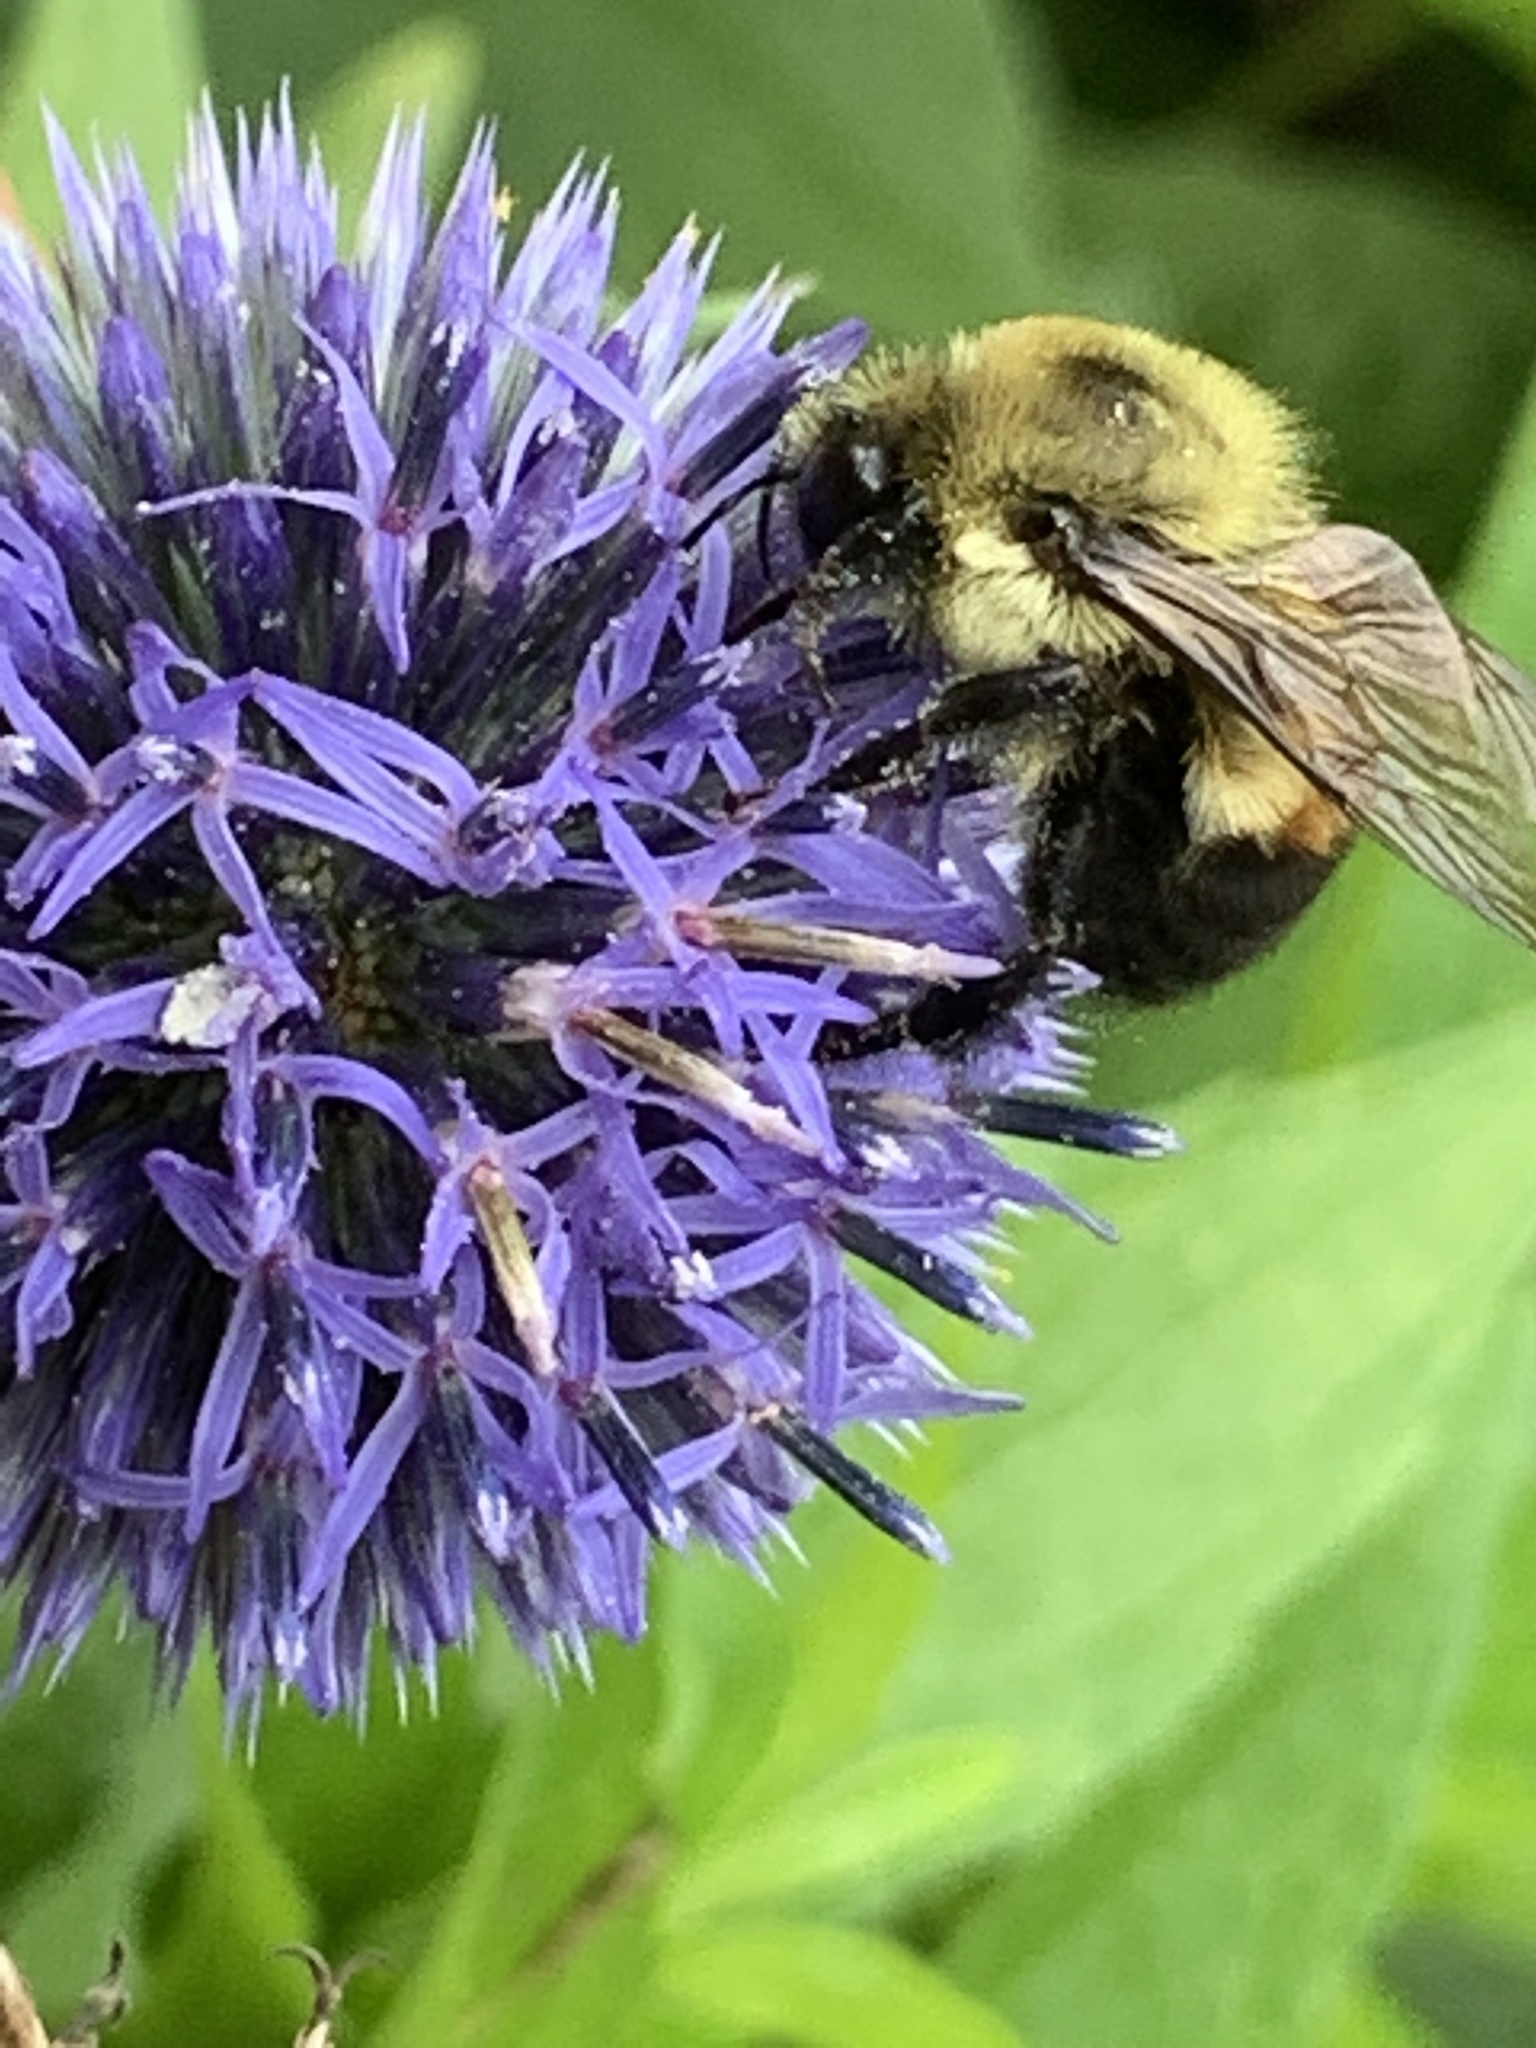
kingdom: Animalia
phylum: Arthropoda
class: Insecta
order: Hymenoptera
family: Apidae
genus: Bombus
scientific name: Bombus griseocollis
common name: Brown-belted bumble bee
